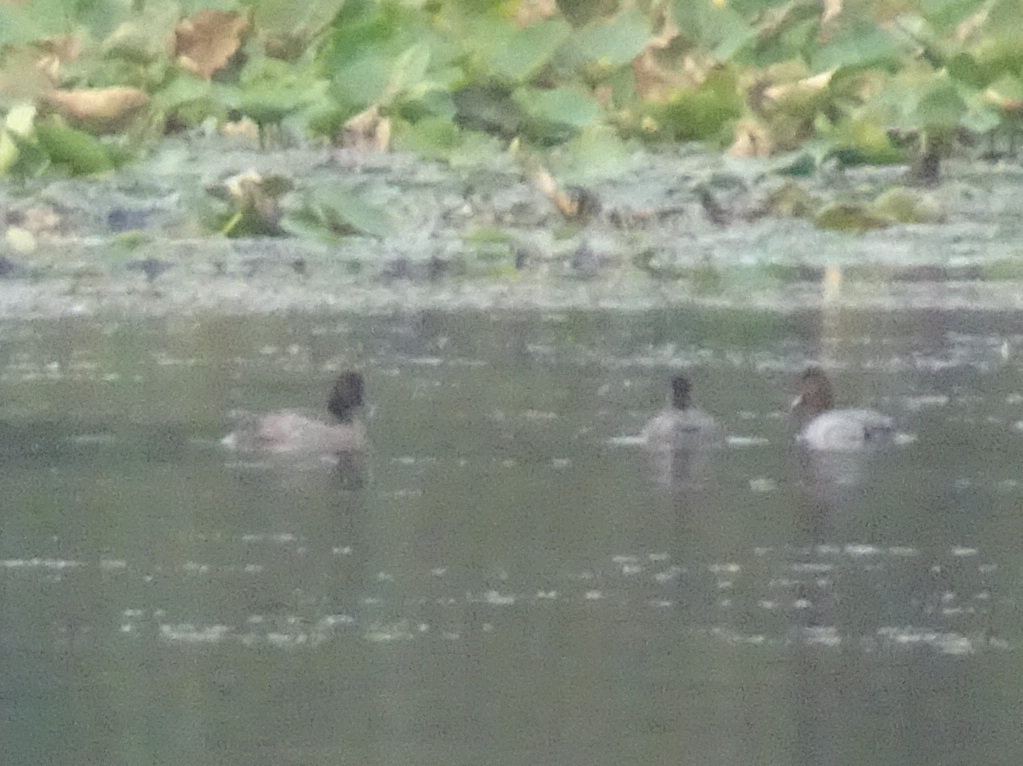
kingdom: Animalia
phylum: Chordata
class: Aves
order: Anseriformes
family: Anatidae
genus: Aythya
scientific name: Aythya americana
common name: Redhead
